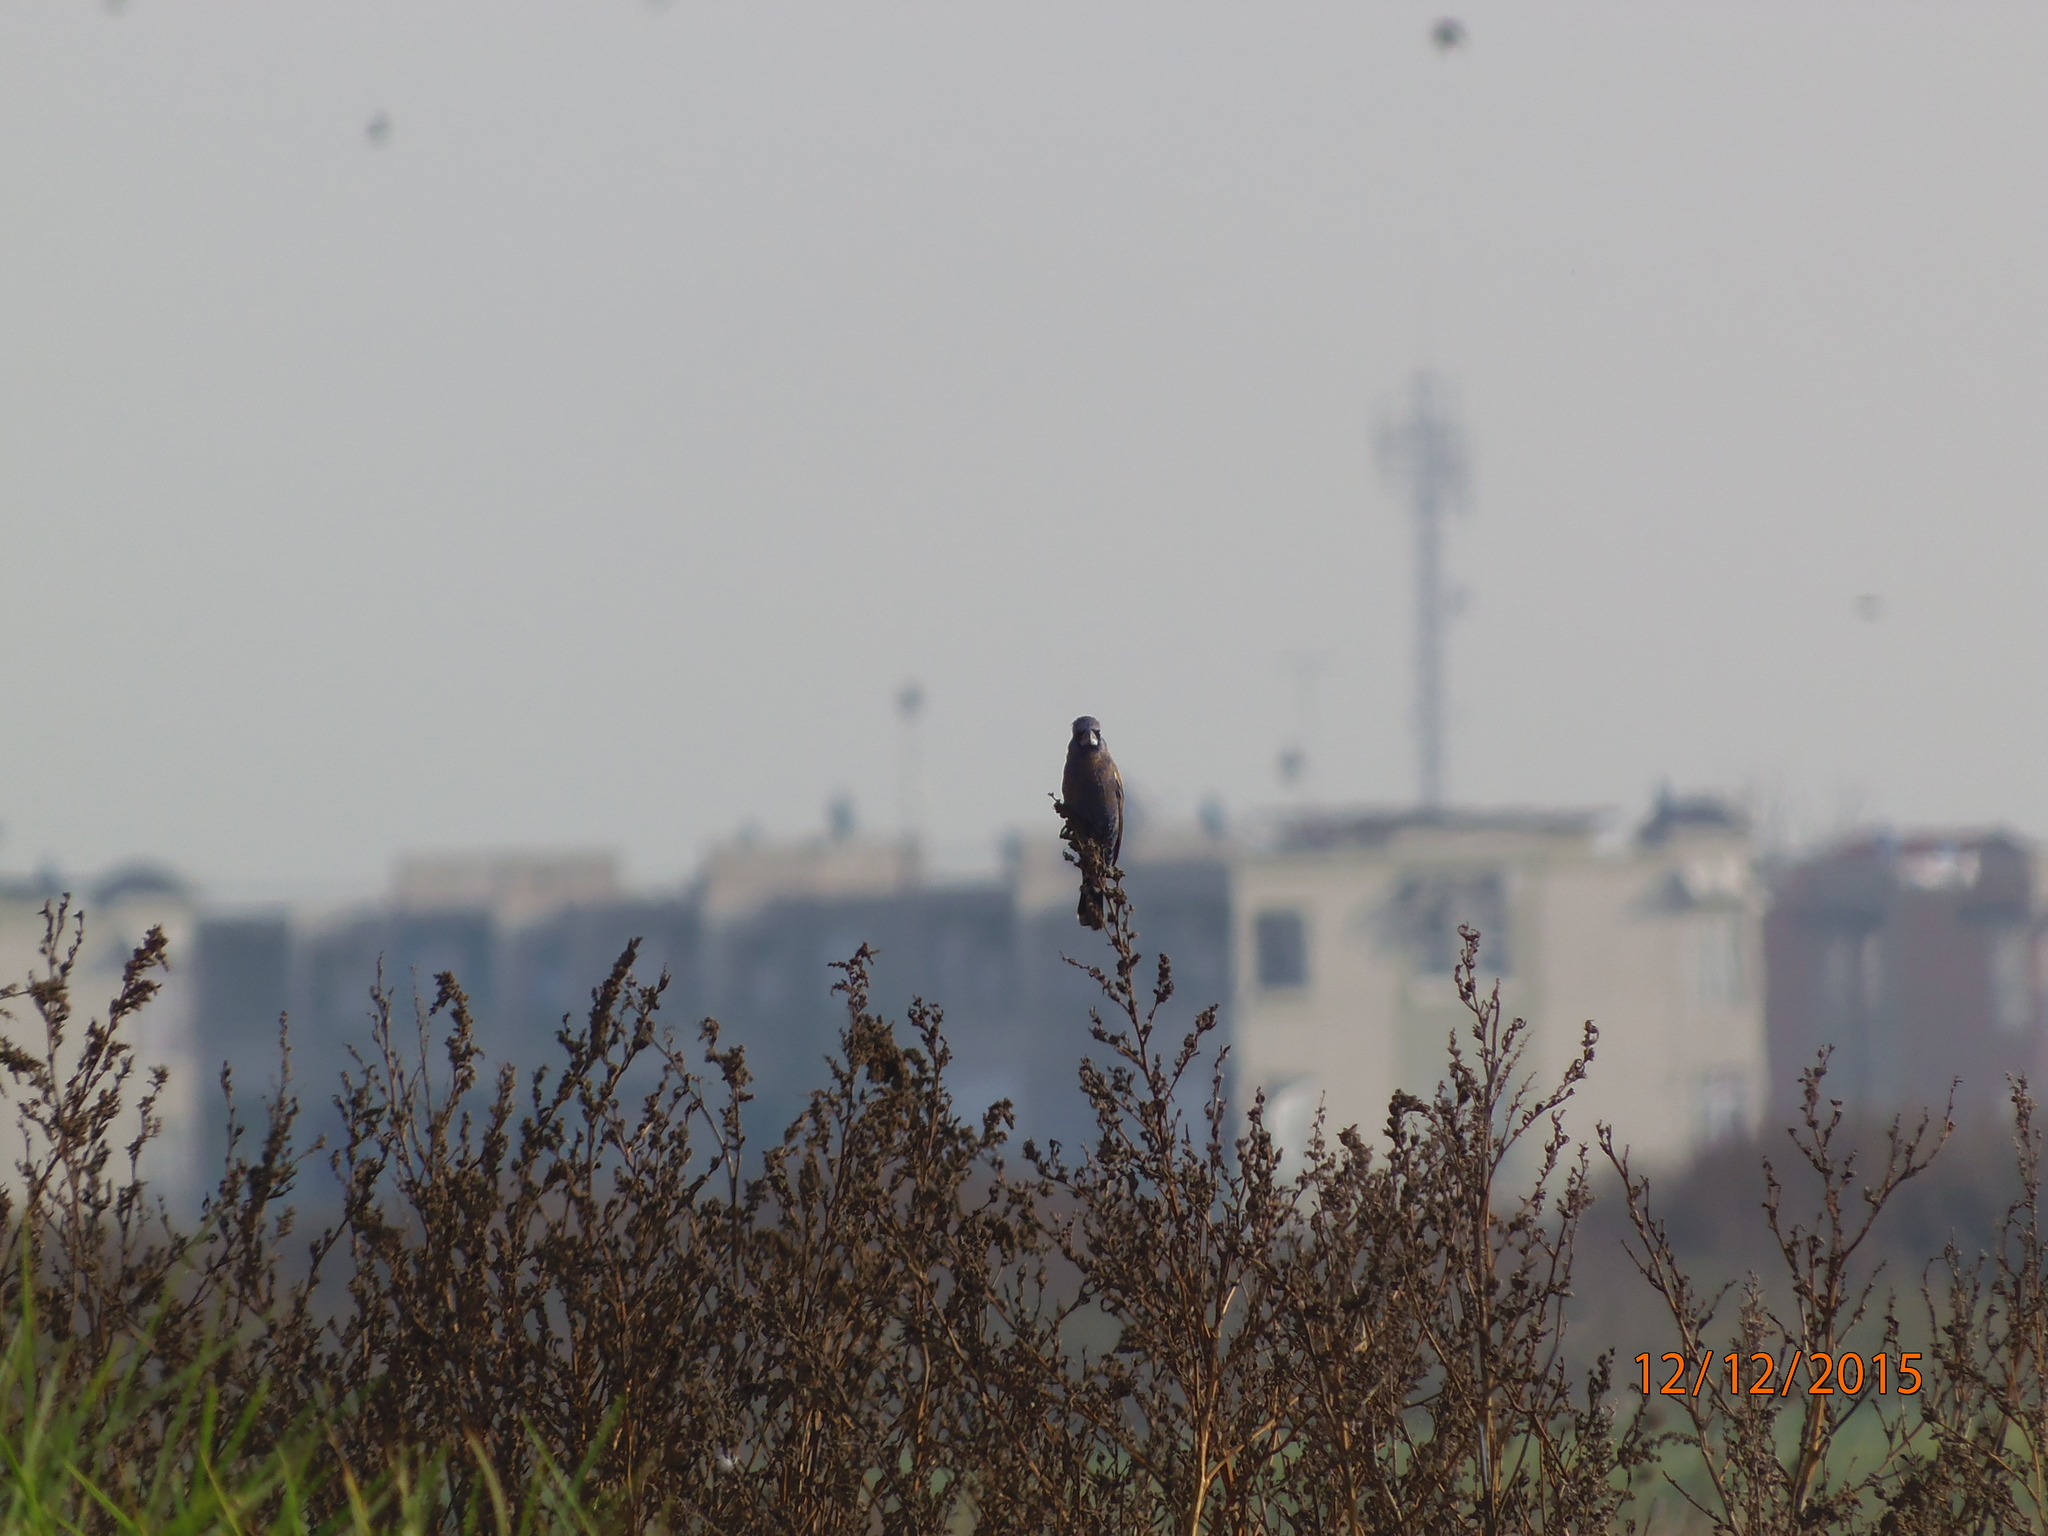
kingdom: Animalia
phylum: Chordata
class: Aves
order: Passeriformes
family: Cardinalidae
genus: Passerina
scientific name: Passerina caerulea
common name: Blue grosbeak
